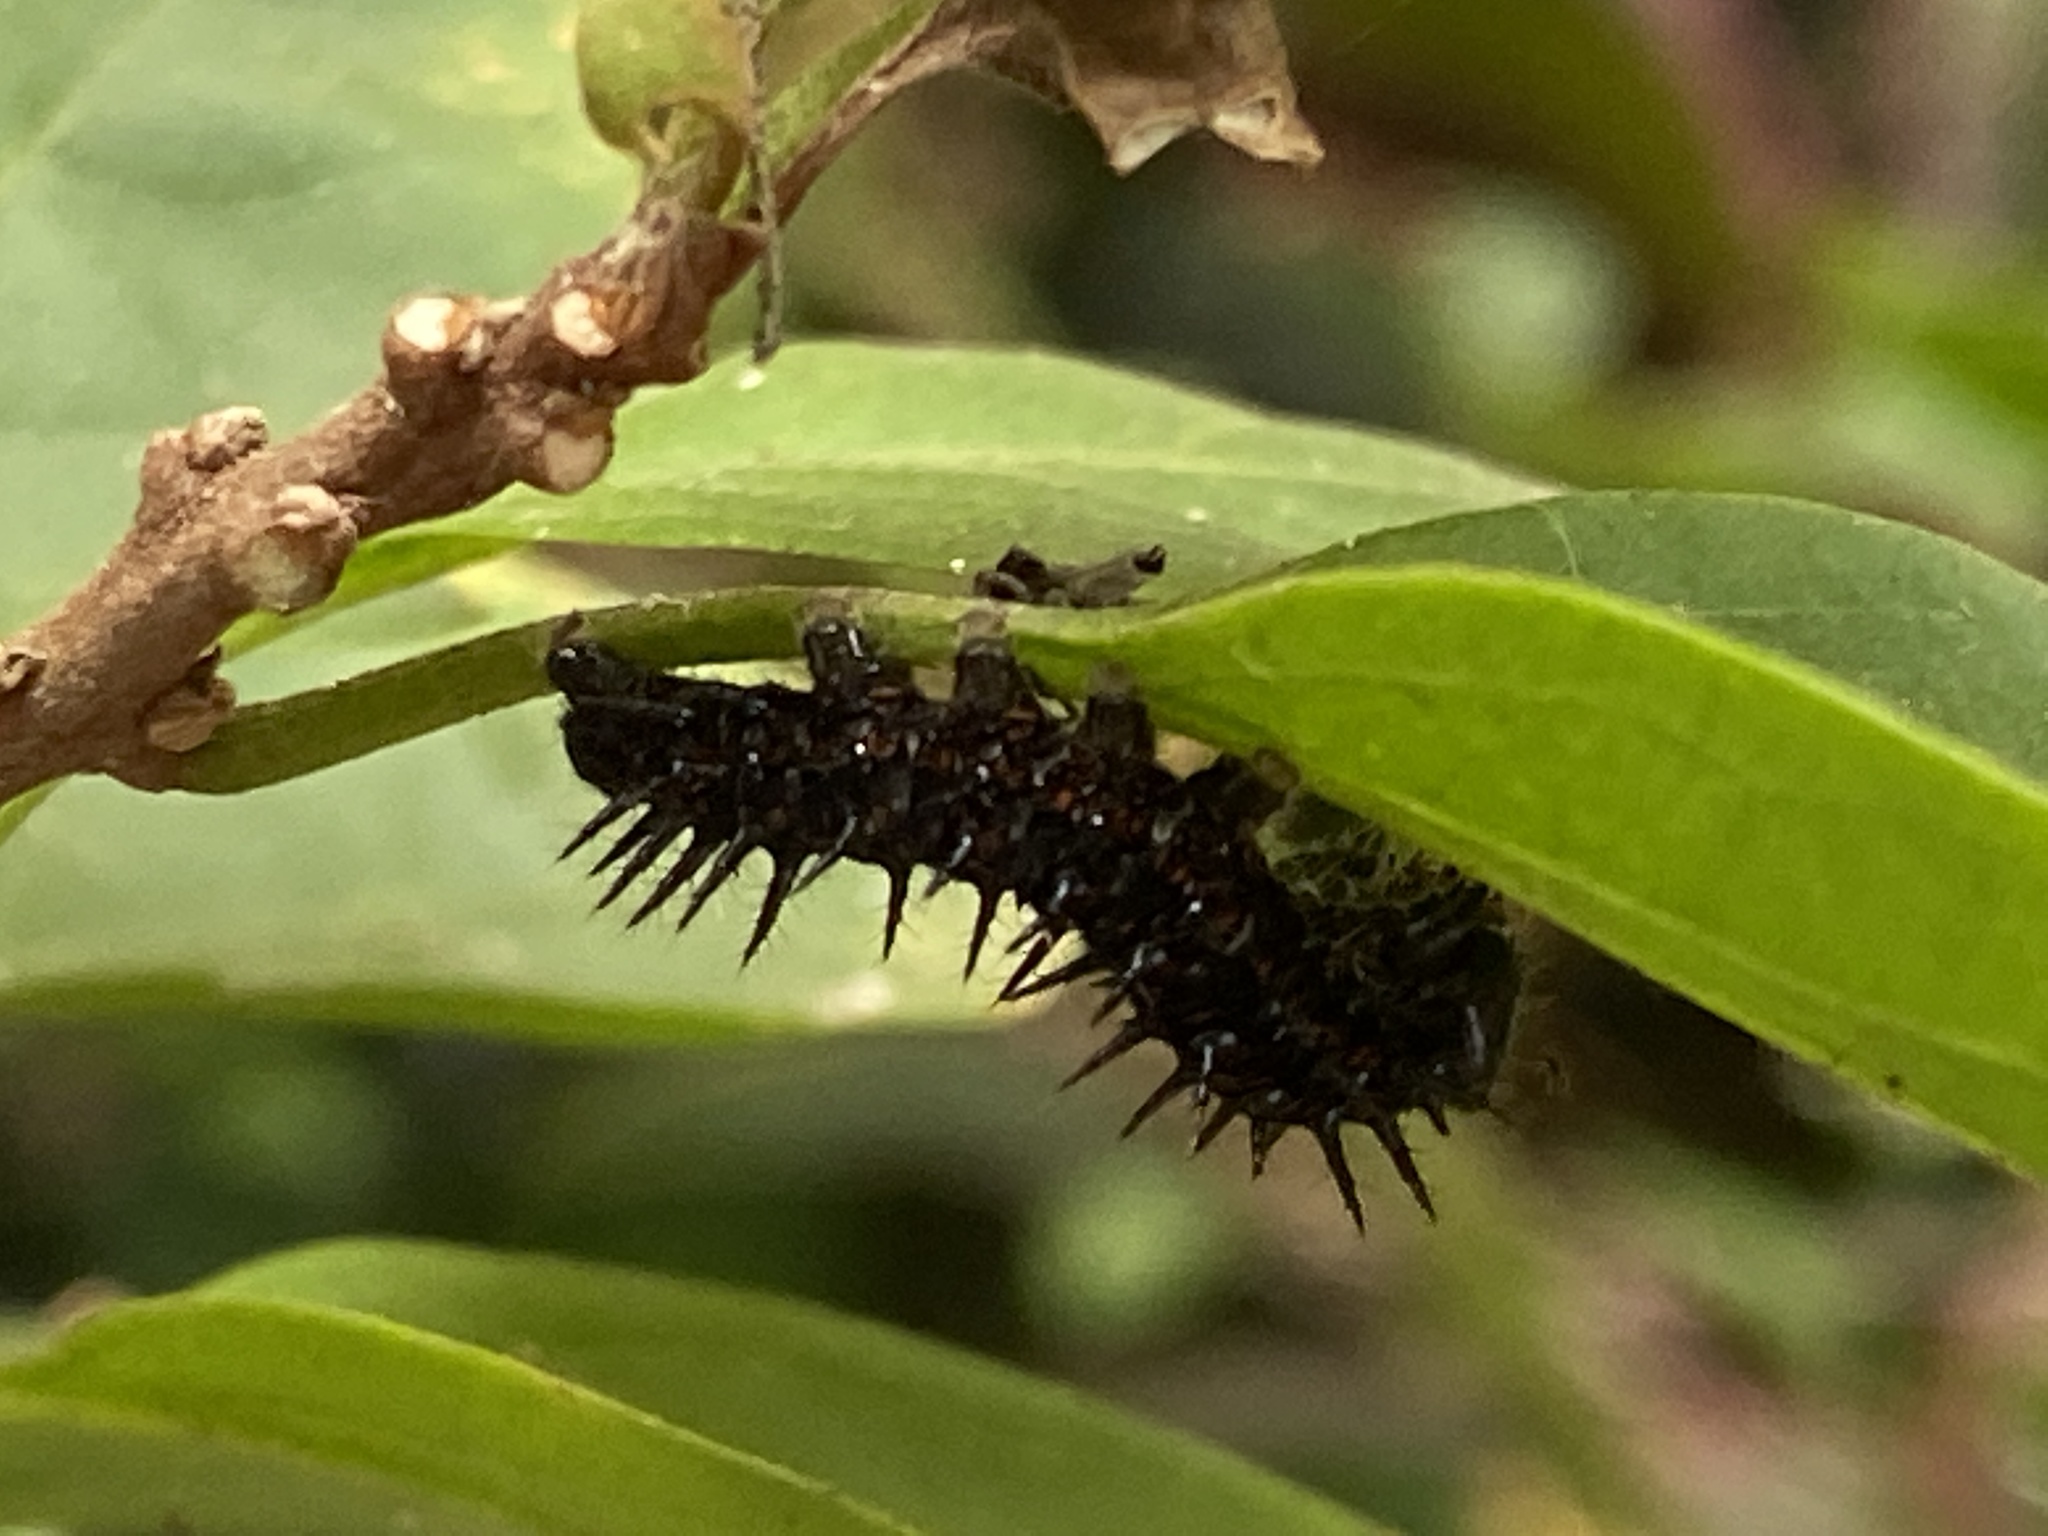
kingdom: Animalia
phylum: Arthropoda
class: Insecta
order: Lepidoptera
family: Nymphalidae
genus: Dione
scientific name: Dione juno
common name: Juno silverspot
